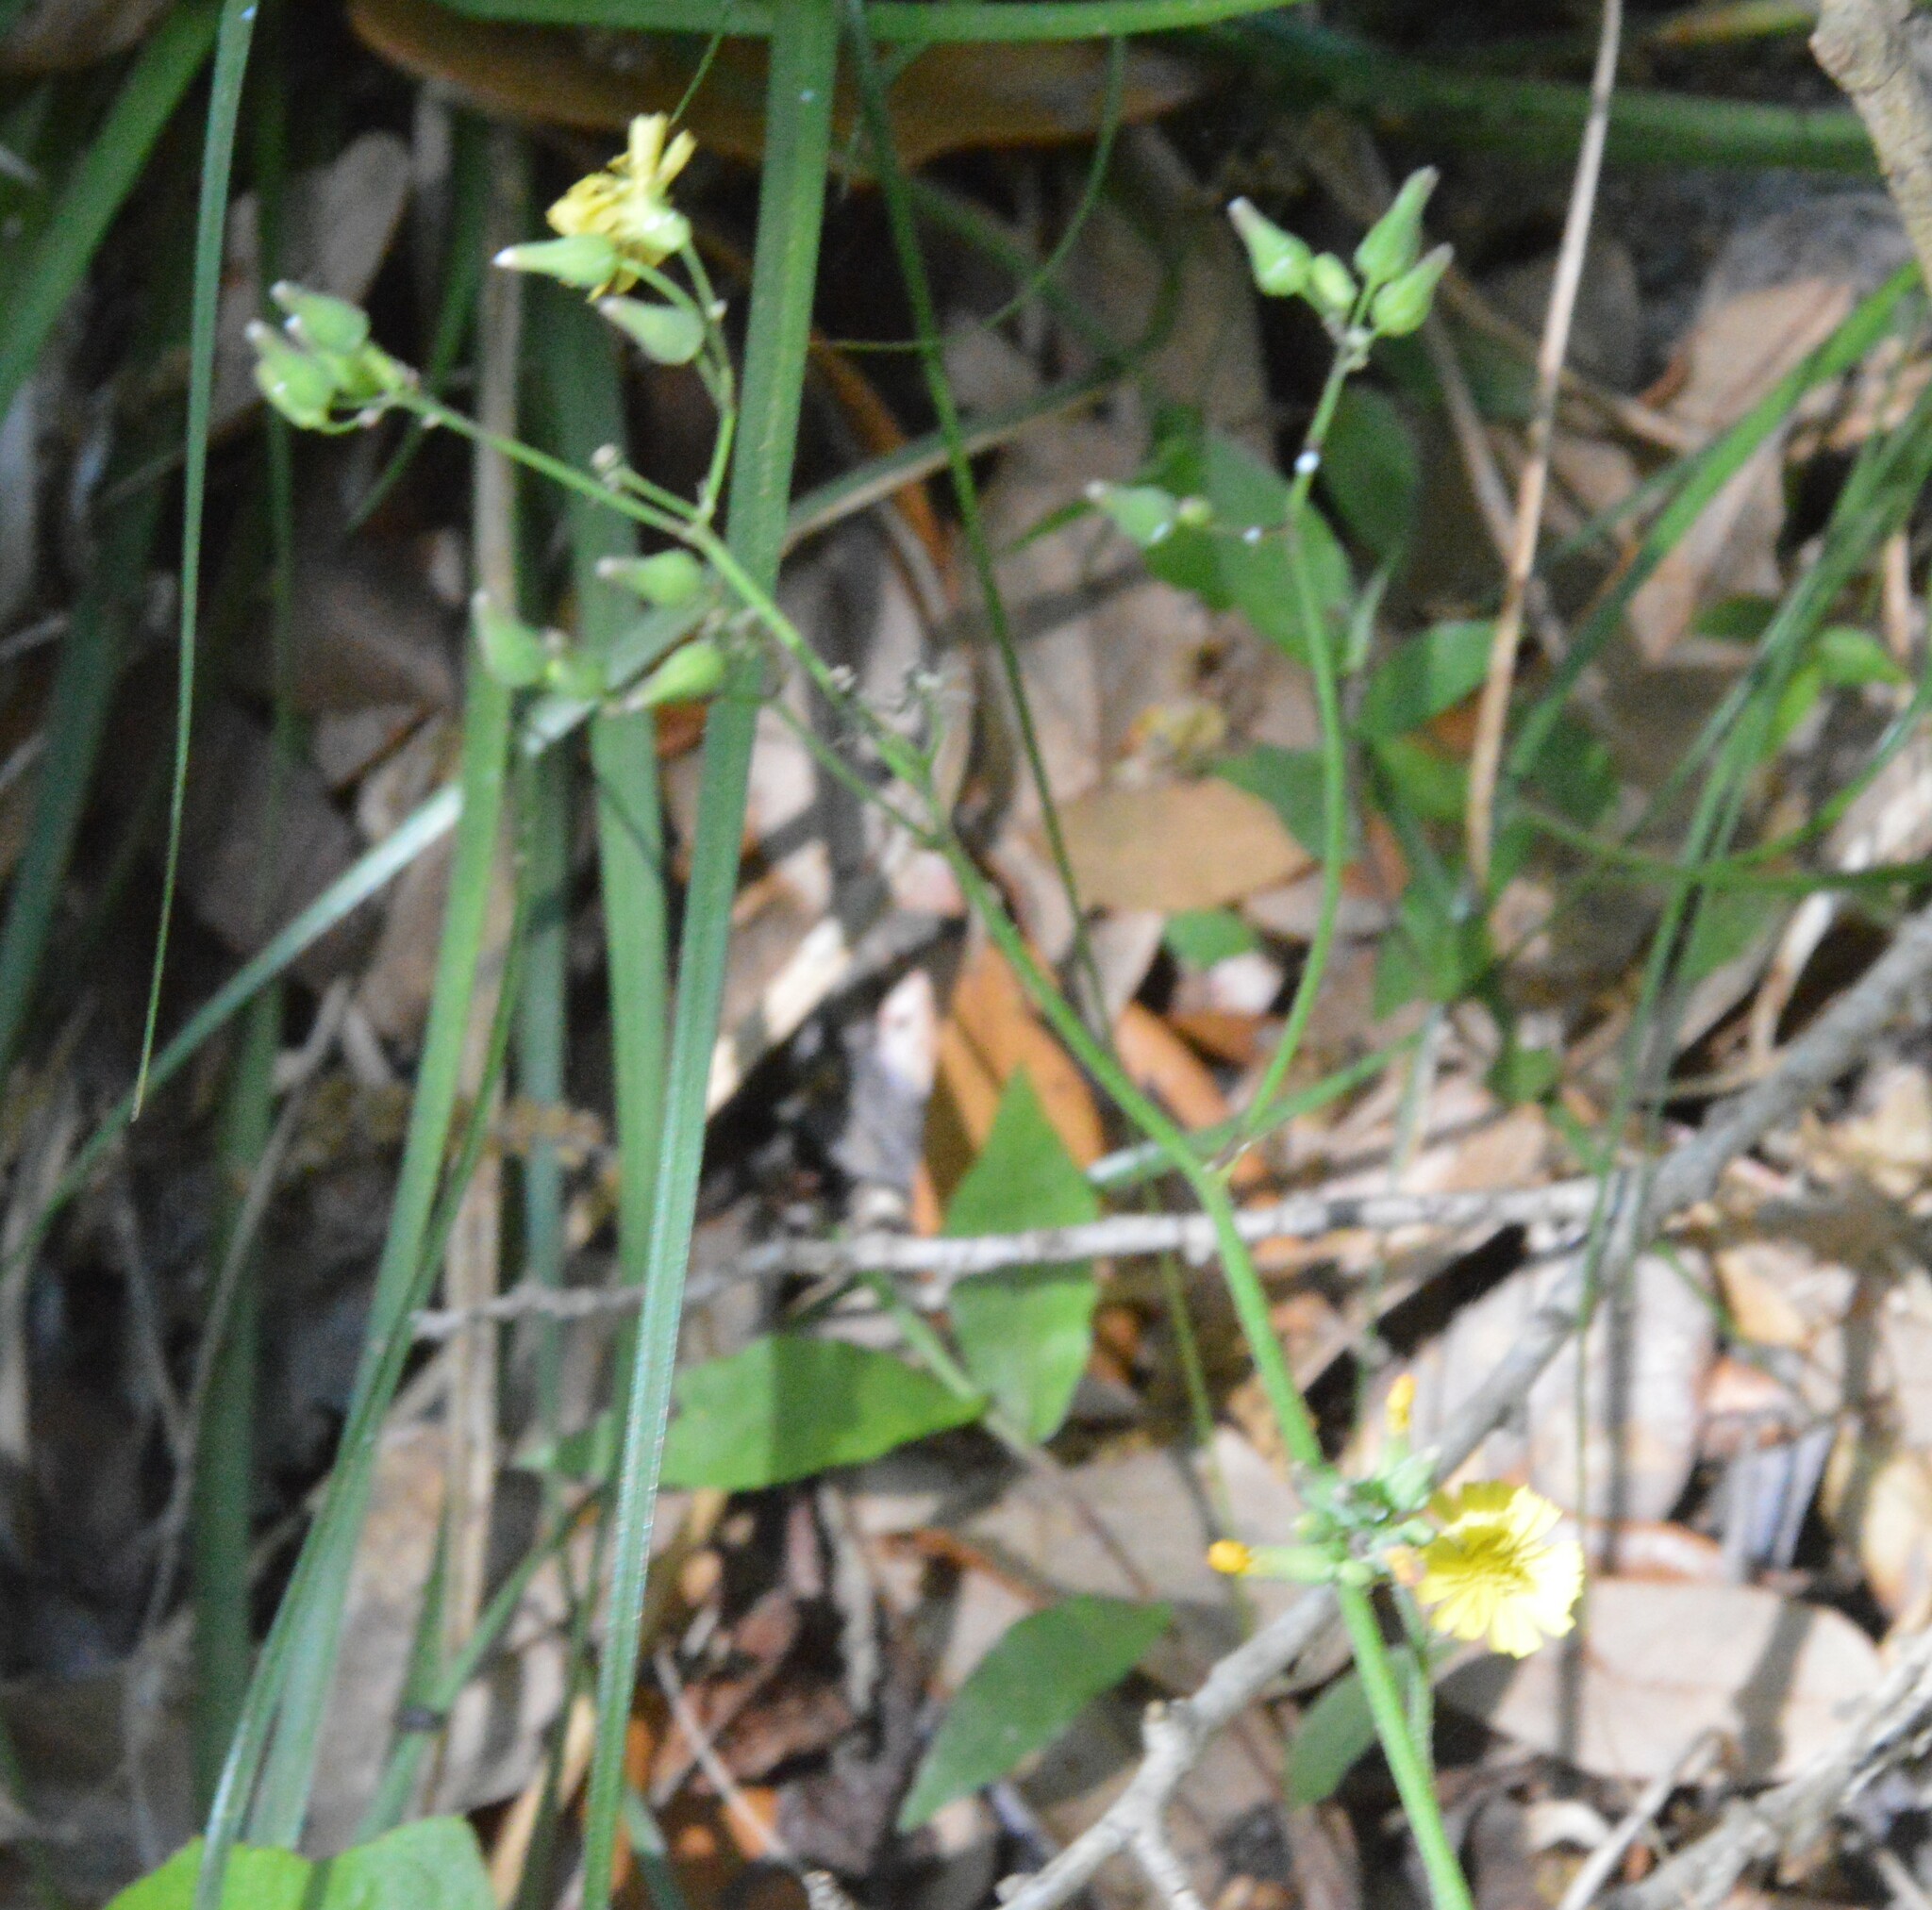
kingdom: Plantae
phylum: Tracheophyta
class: Magnoliopsida
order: Asterales
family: Asteraceae
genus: Youngia
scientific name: Youngia japonica
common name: Oriental false hawksbeard
